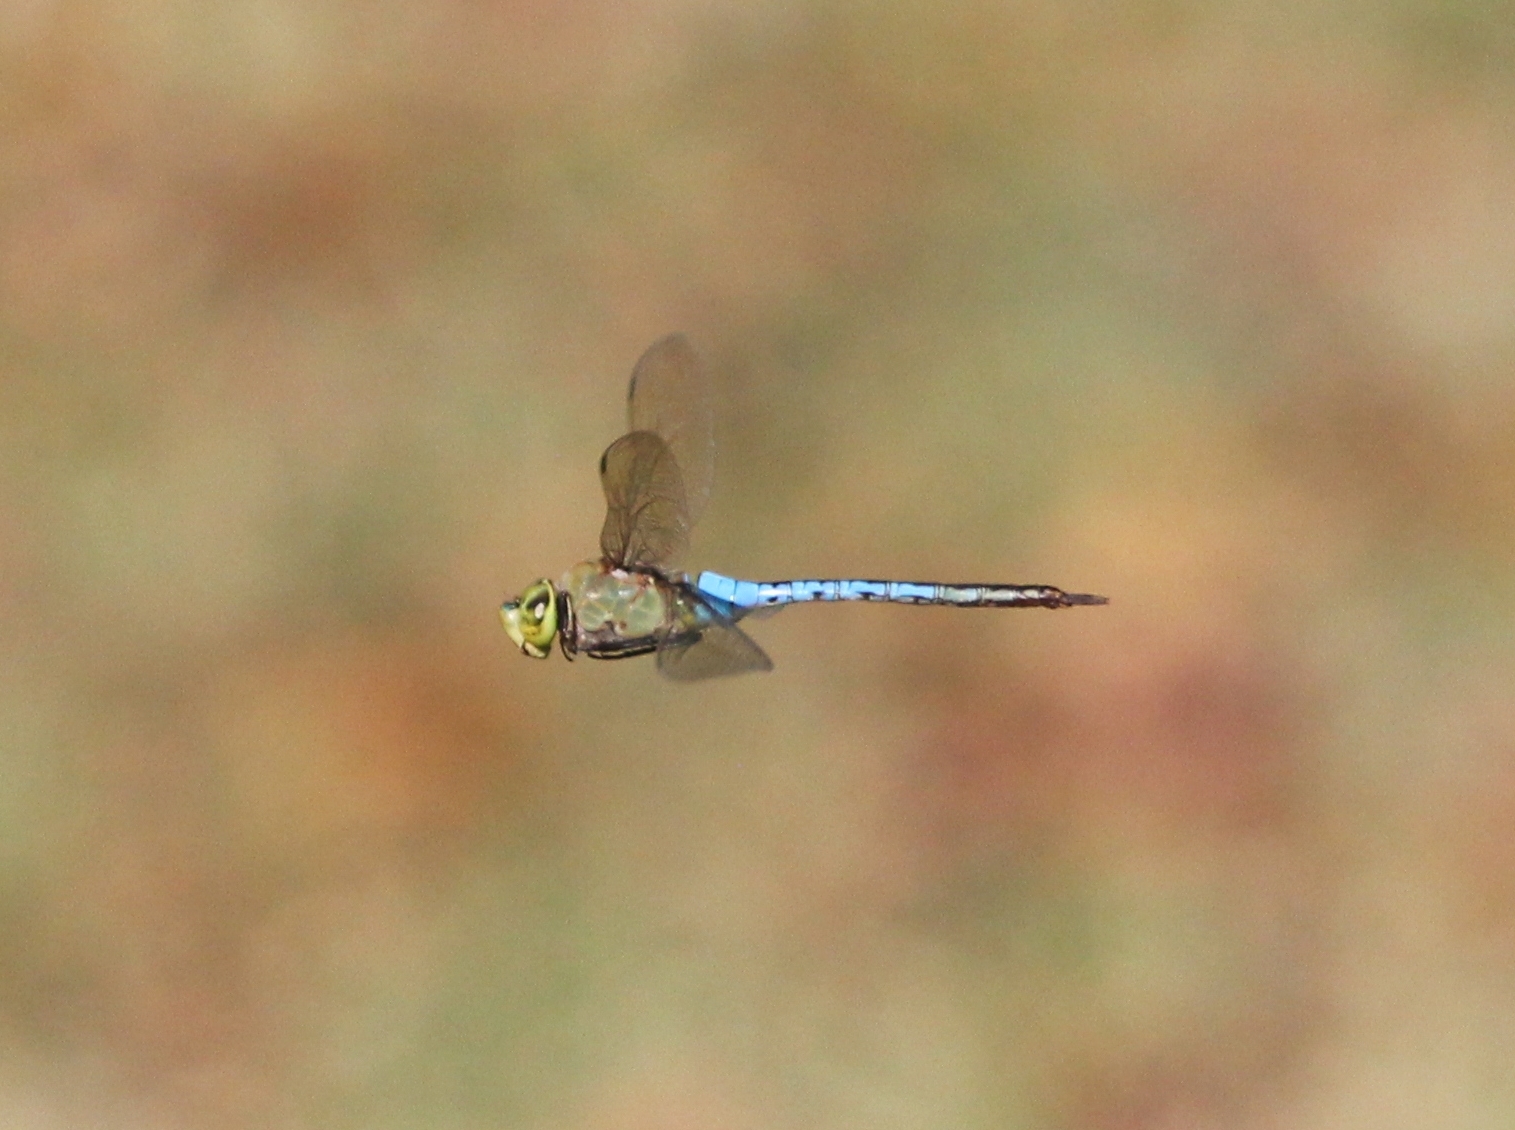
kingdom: Animalia
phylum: Arthropoda
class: Insecta
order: Odonata
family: Aeshnidae
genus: Anax
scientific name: Anax junius
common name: Common green darner
